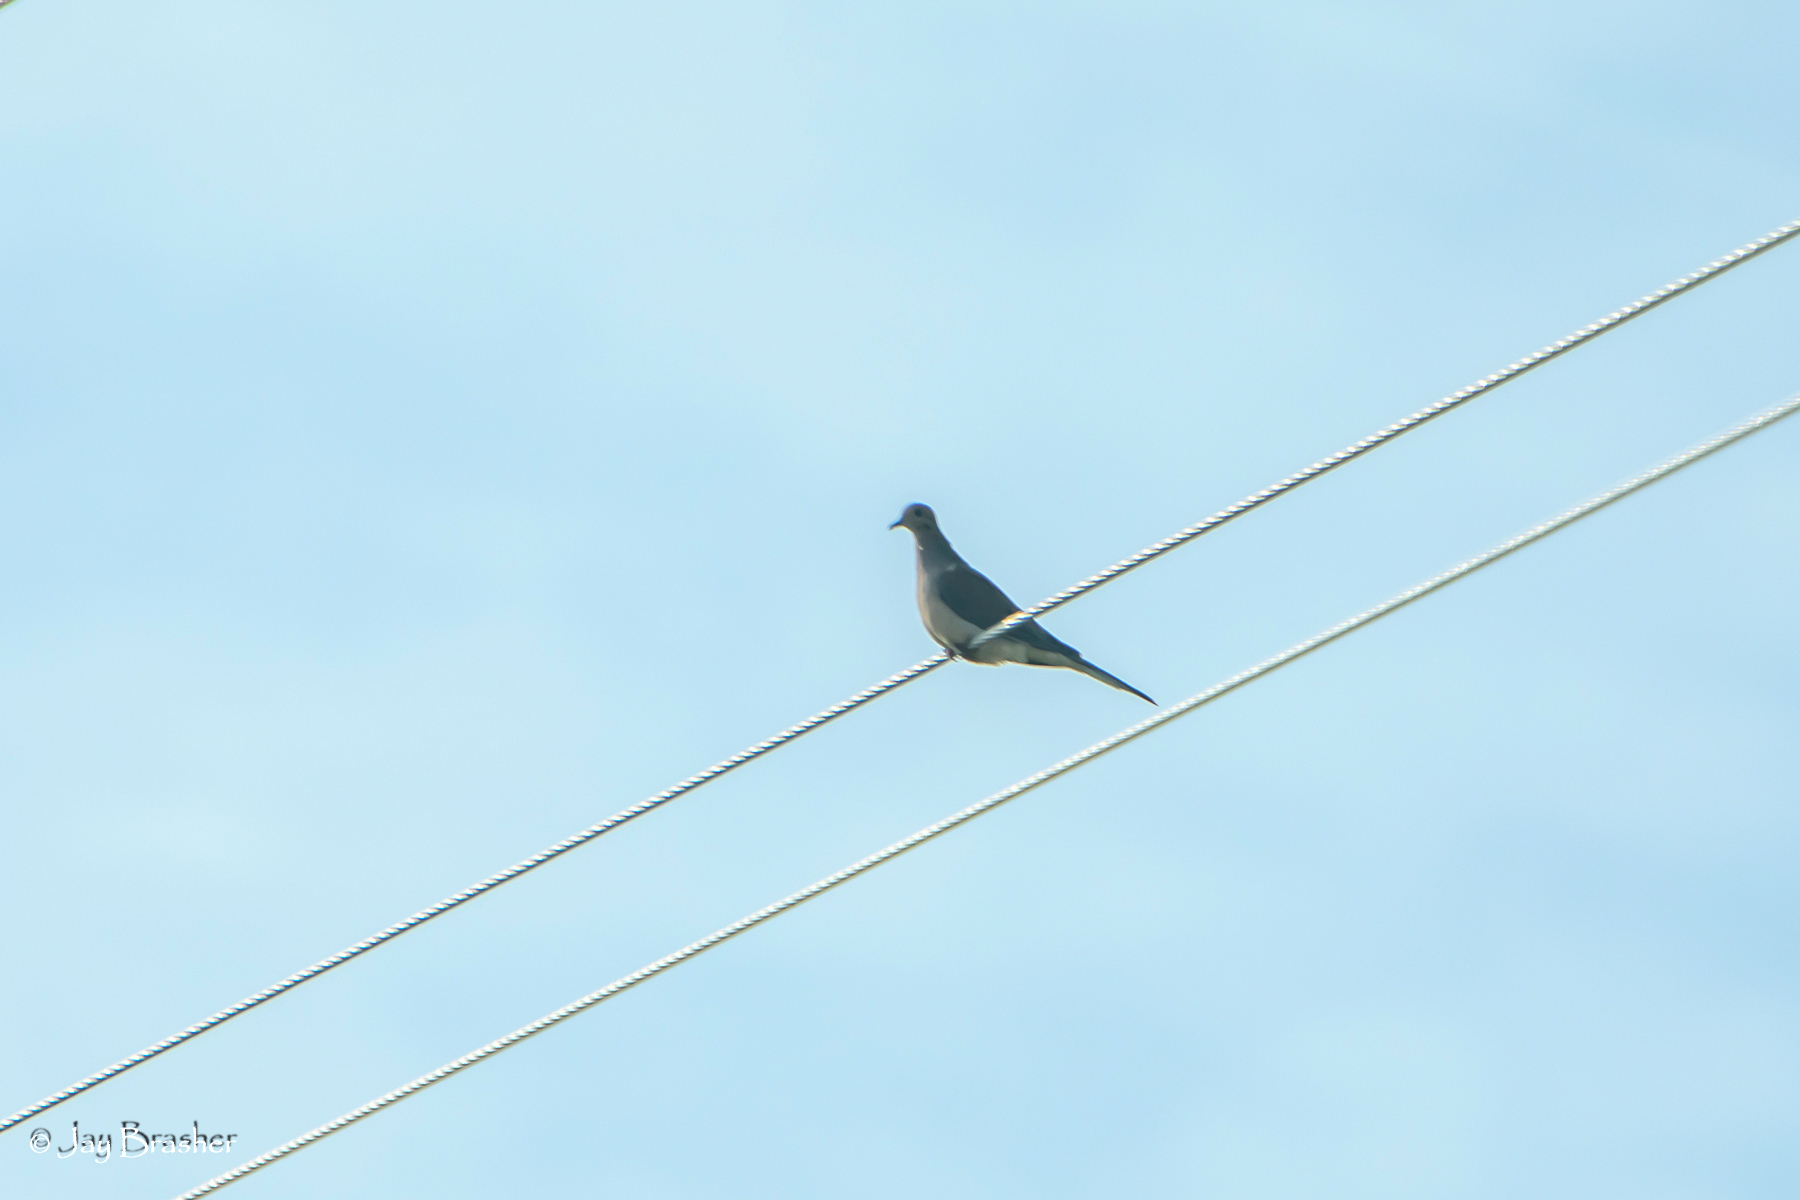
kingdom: Animalia
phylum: Chordata
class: Aves
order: Columbiformes
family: Columbidae
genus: Zenaida
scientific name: Zenaida macroura
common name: Mourning dove
